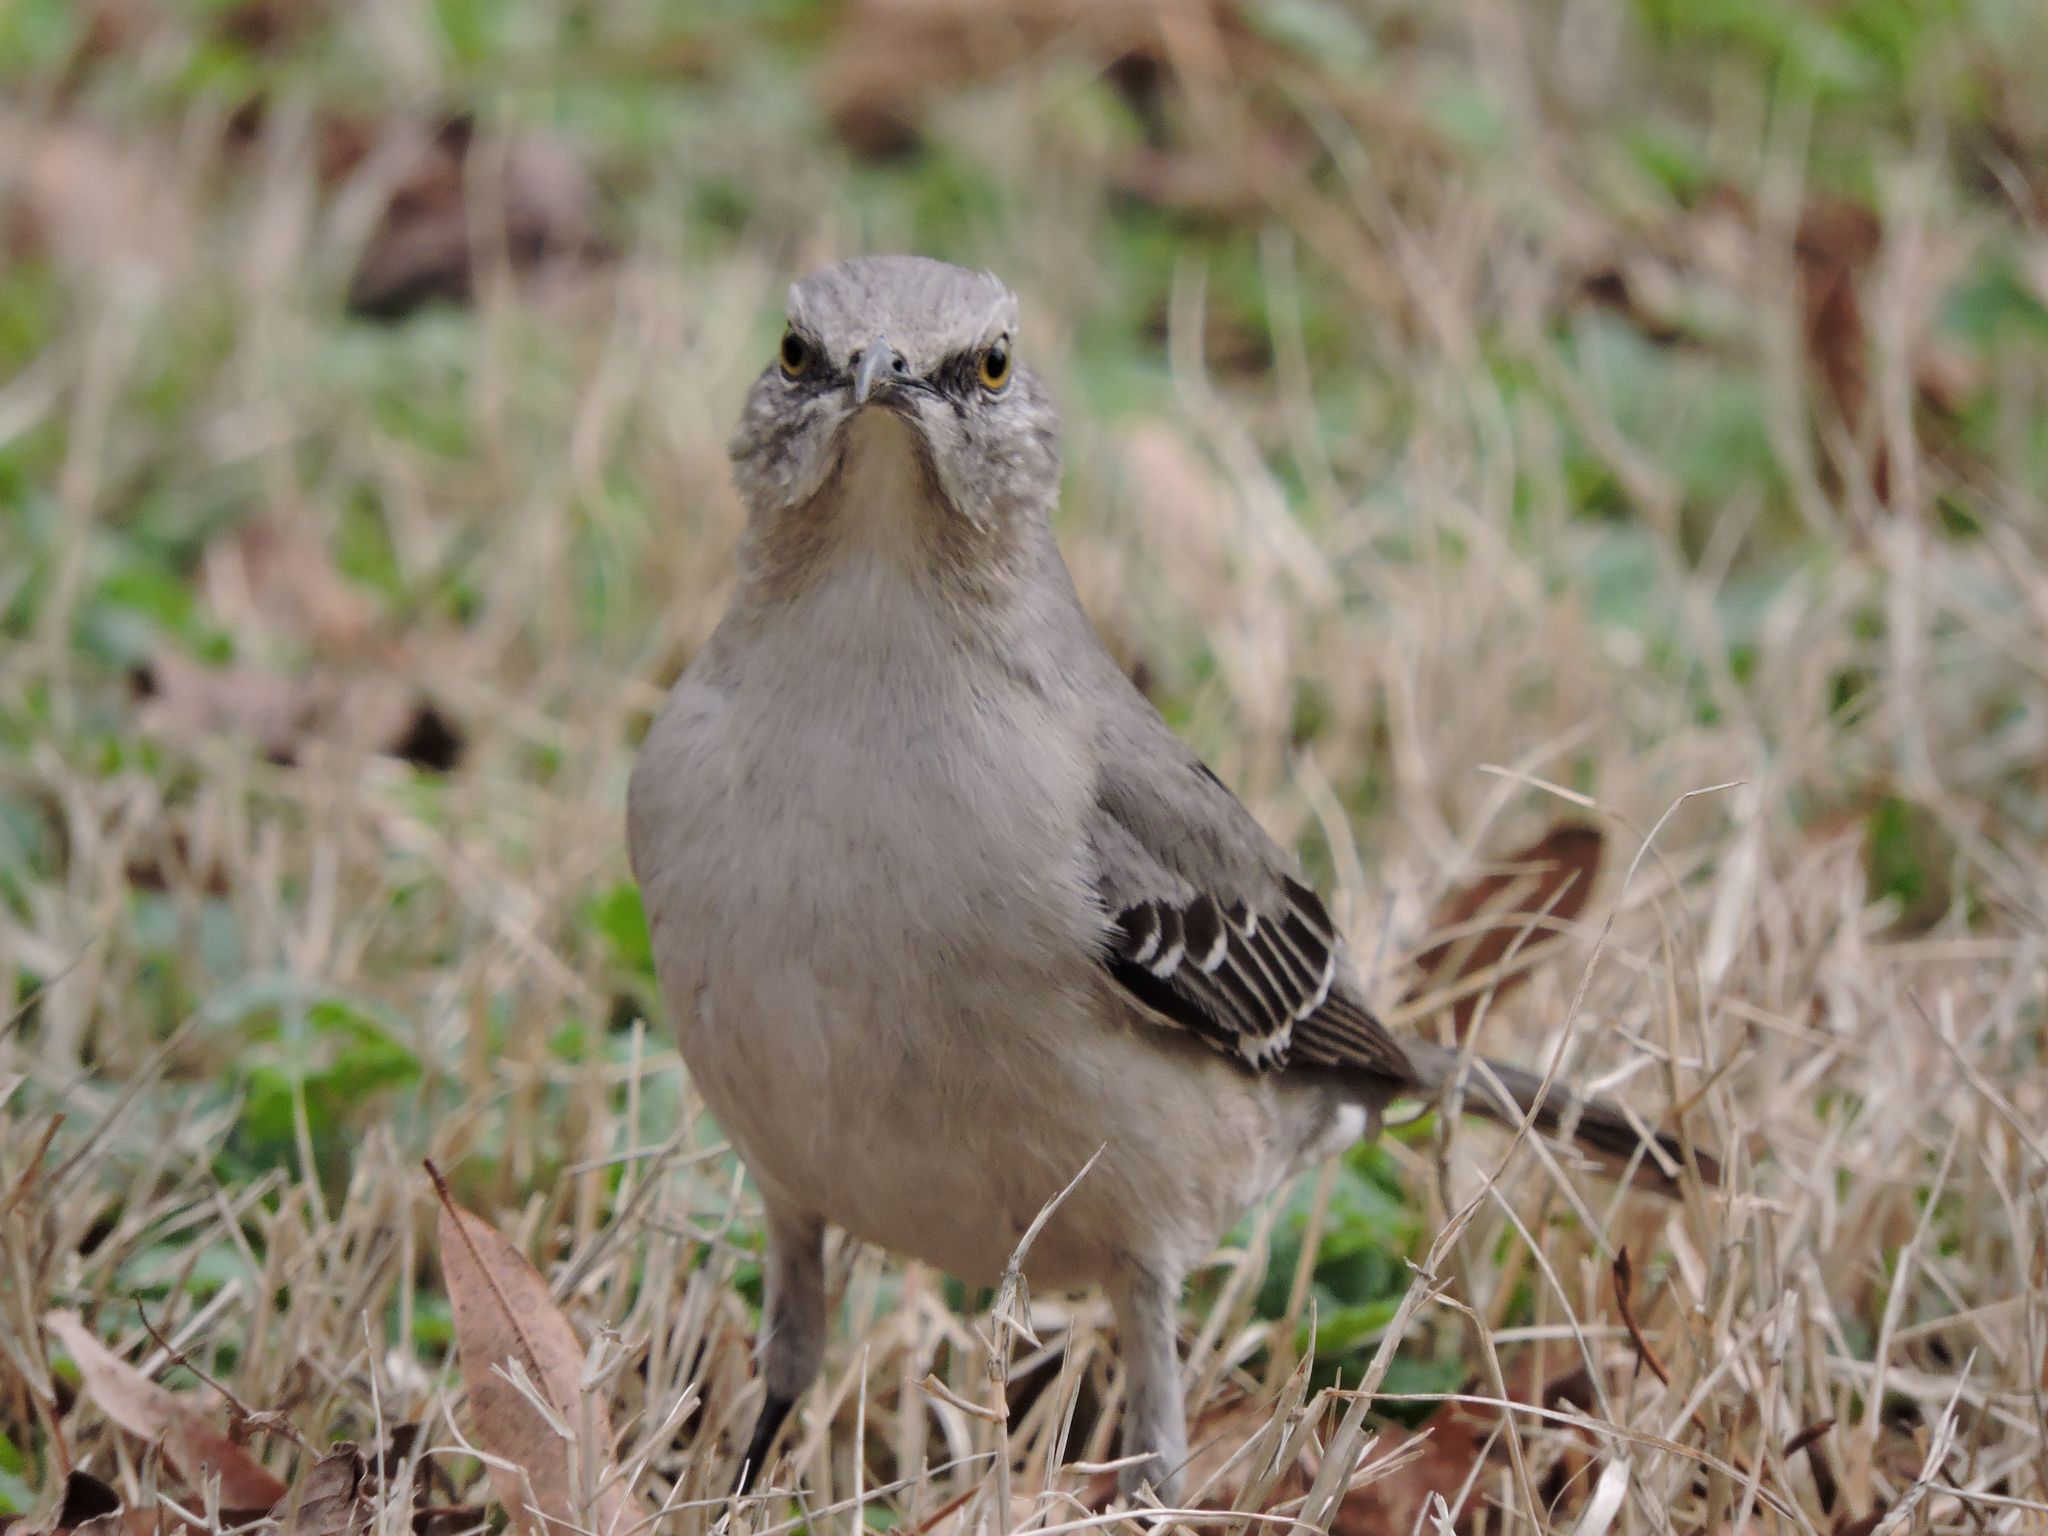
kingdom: Animalia
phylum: Chordata
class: Aves
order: Passeriformes
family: Mimidae
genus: Mimus
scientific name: Mimus polyglottos
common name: Northern mockingbird
